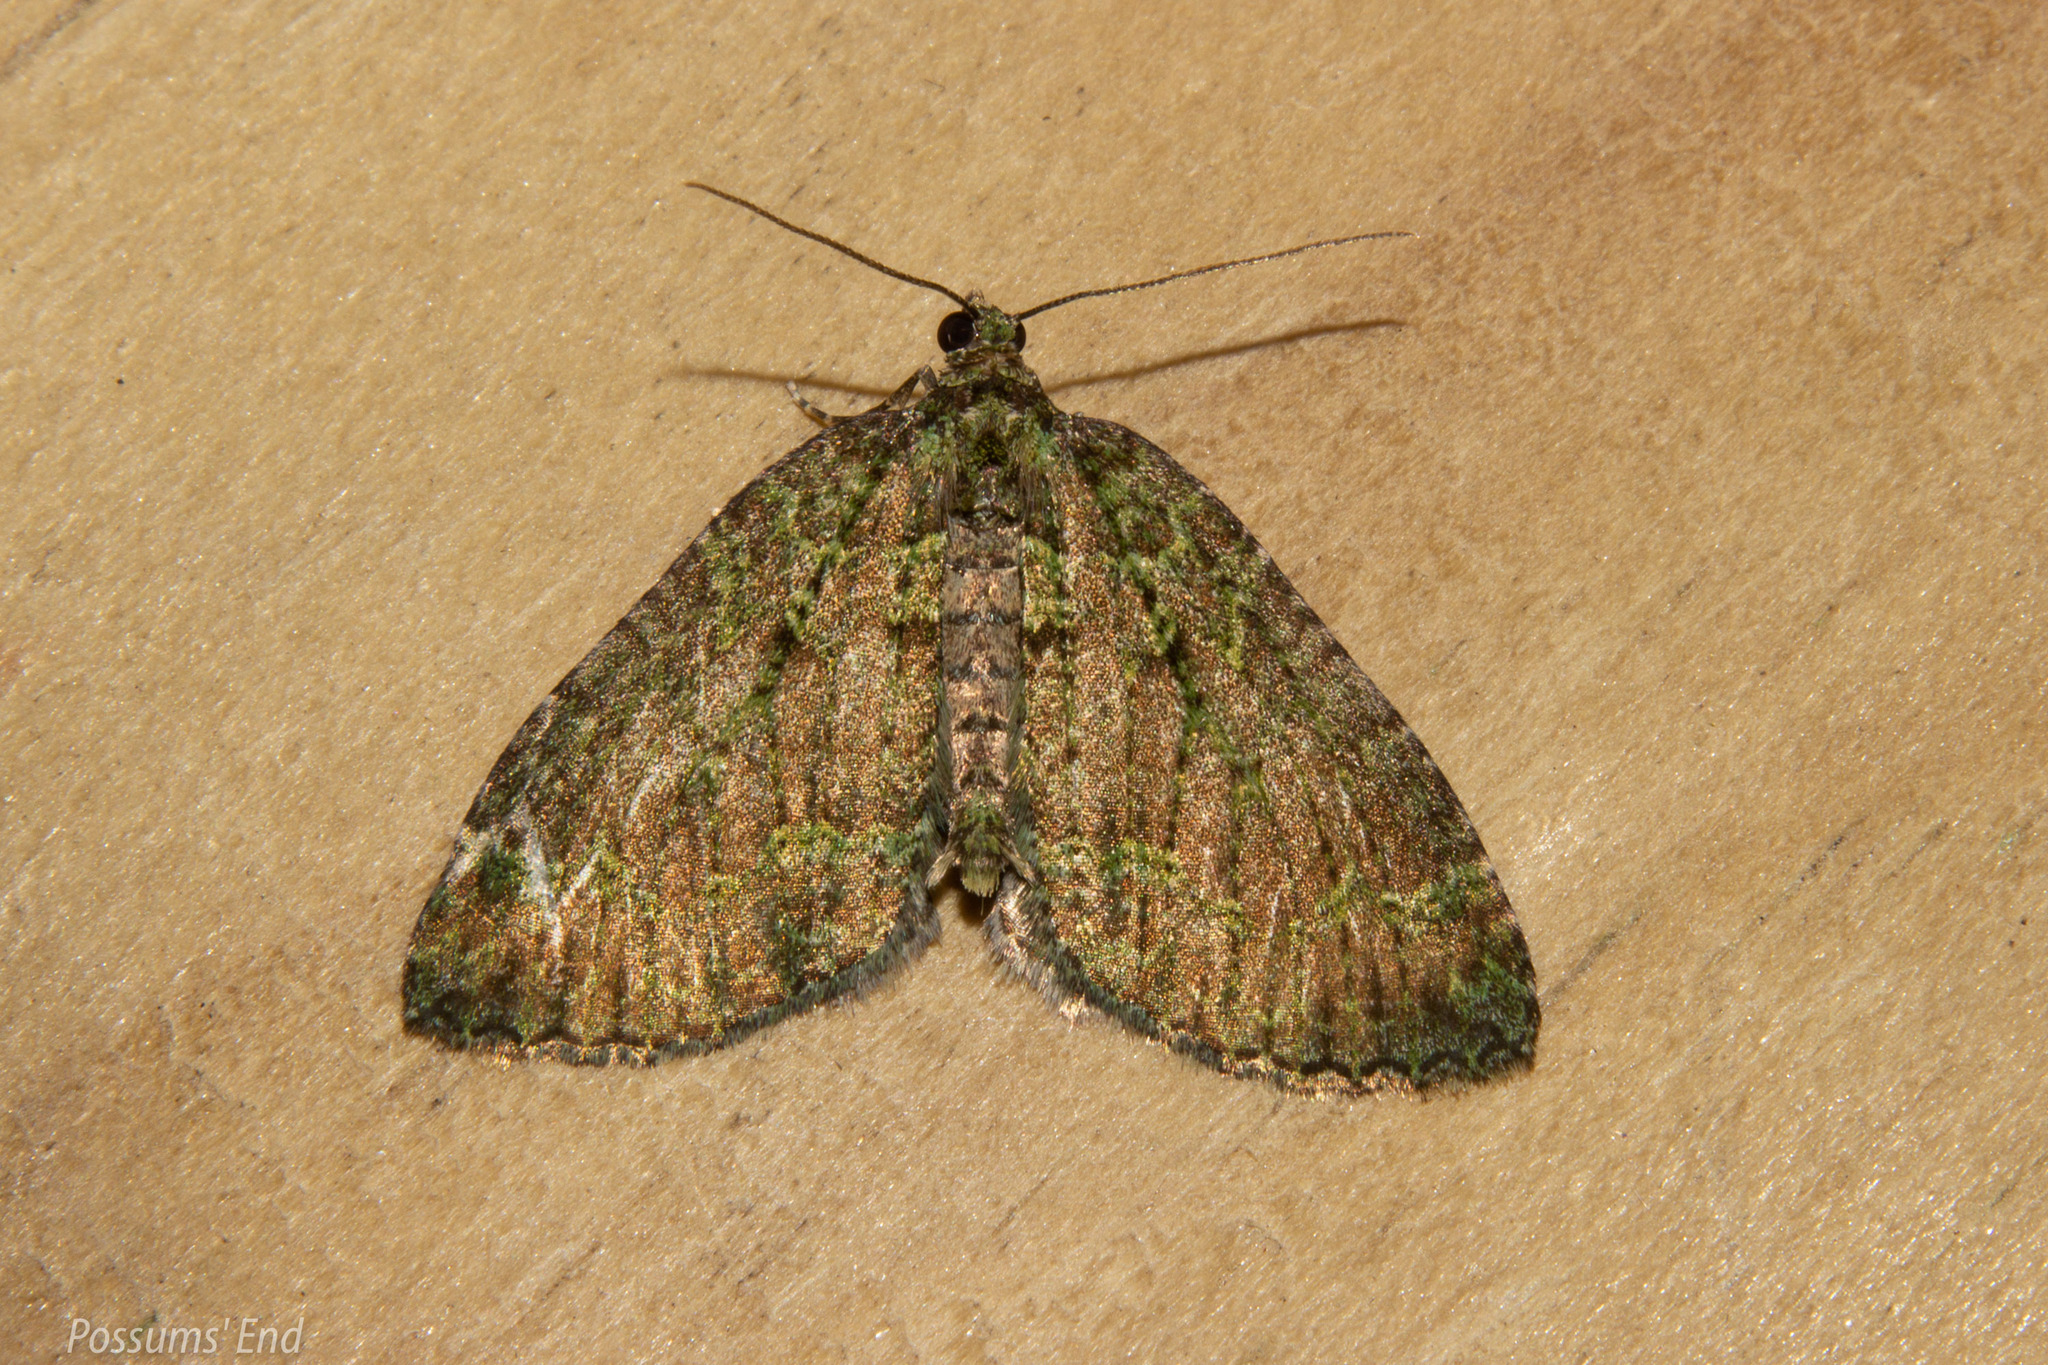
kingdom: Animalia
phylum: Arthropoda
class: Insecta
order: Lepidoptera
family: Geometridae
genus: Austrocidaria
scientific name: Austrocidaria callichlora
